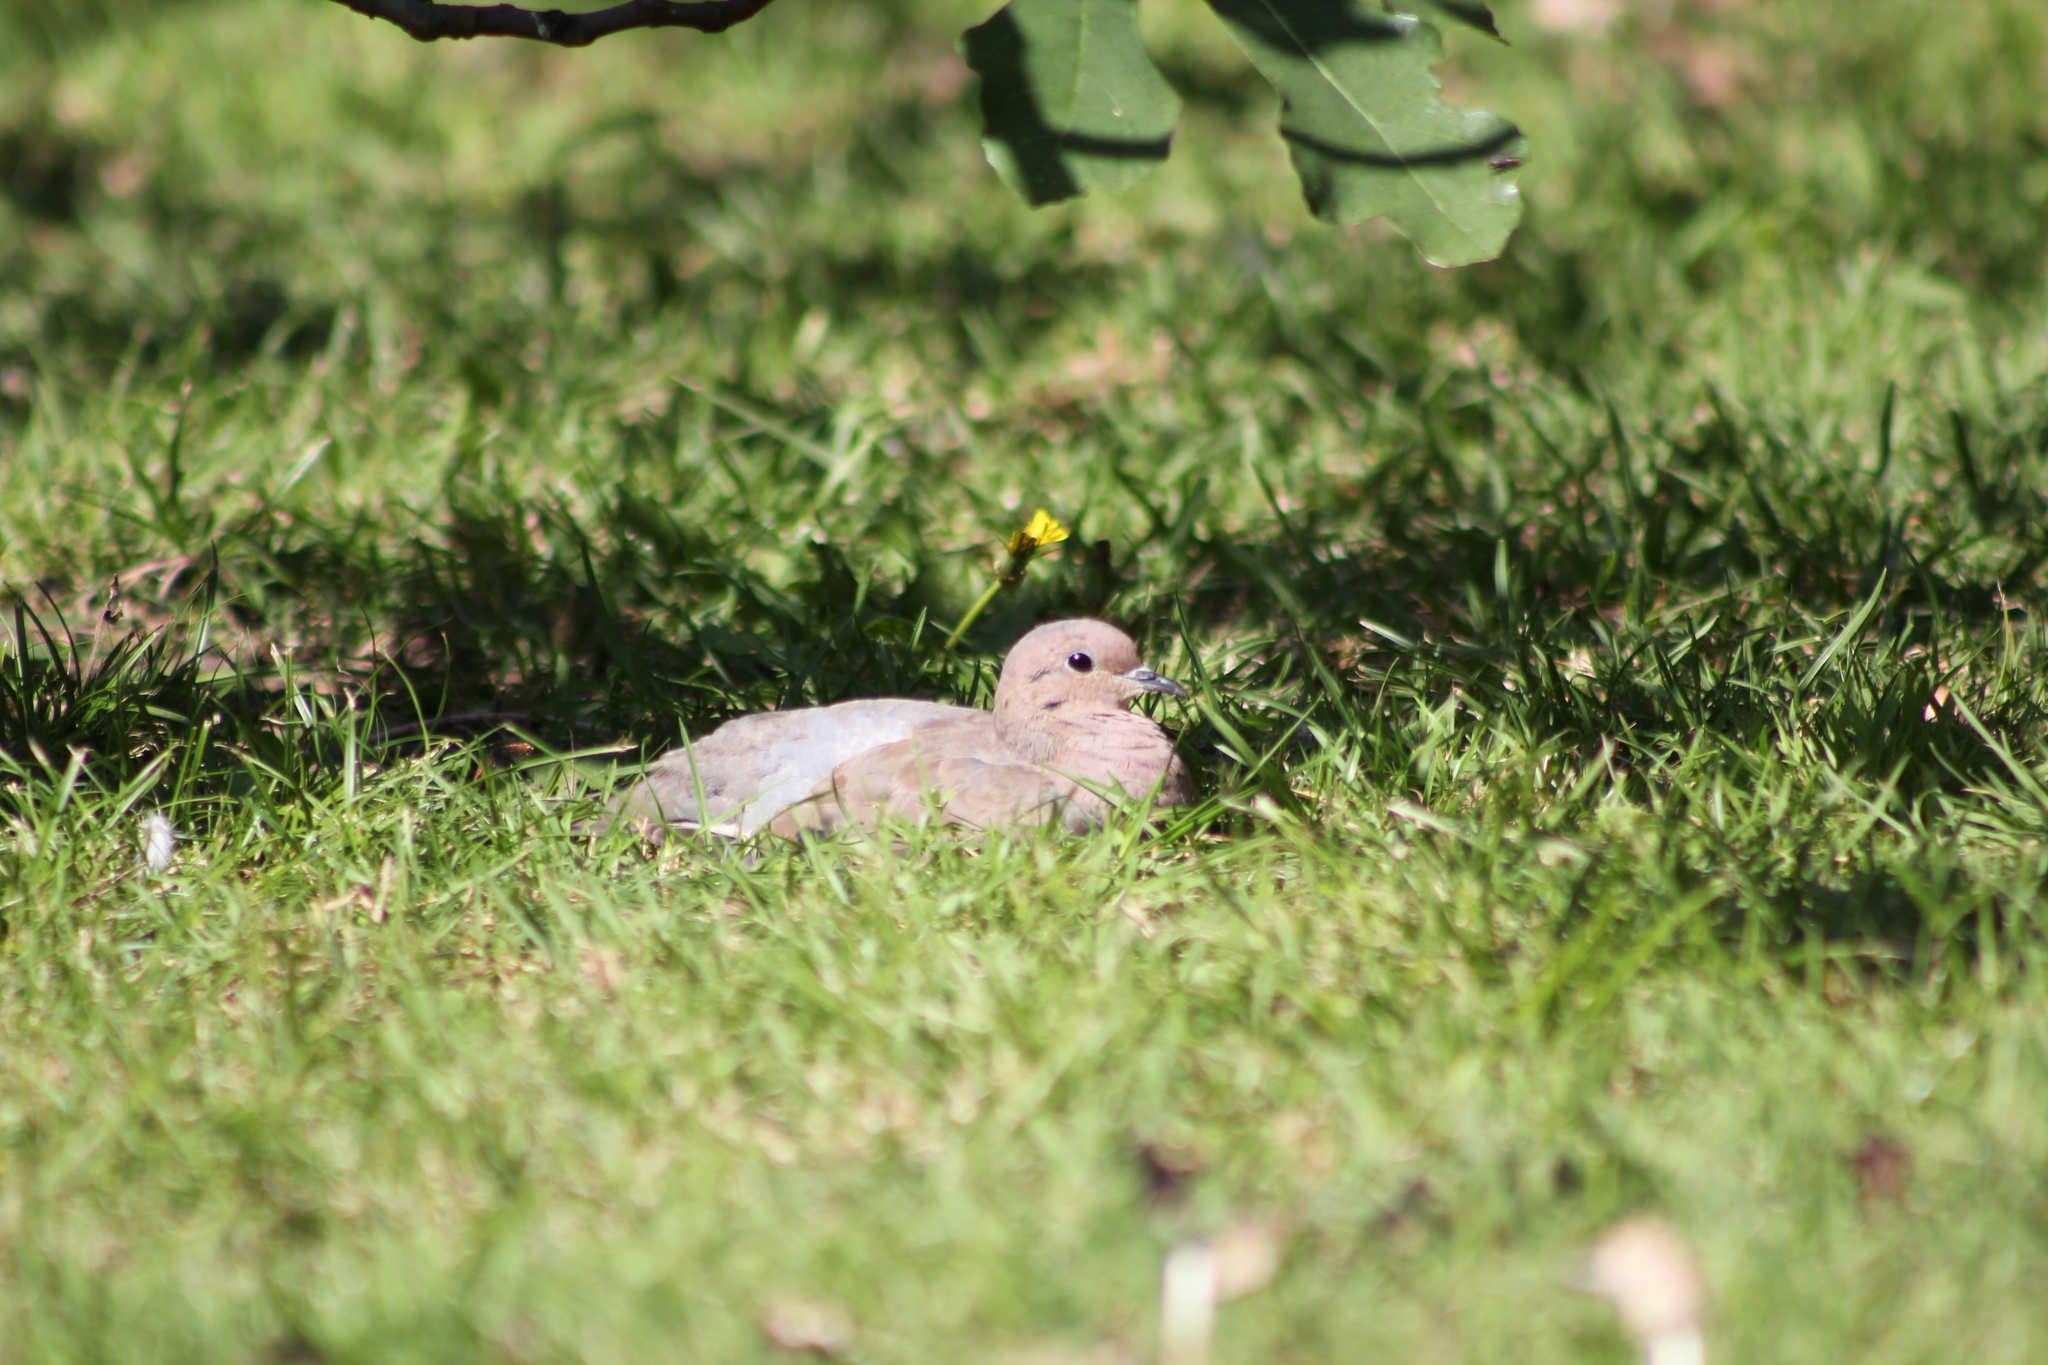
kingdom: Animalia
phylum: Chordata
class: Aves
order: Columbiformes
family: Columbidae
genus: Zenaida
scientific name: Zenaida auriculata
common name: Eared dove
